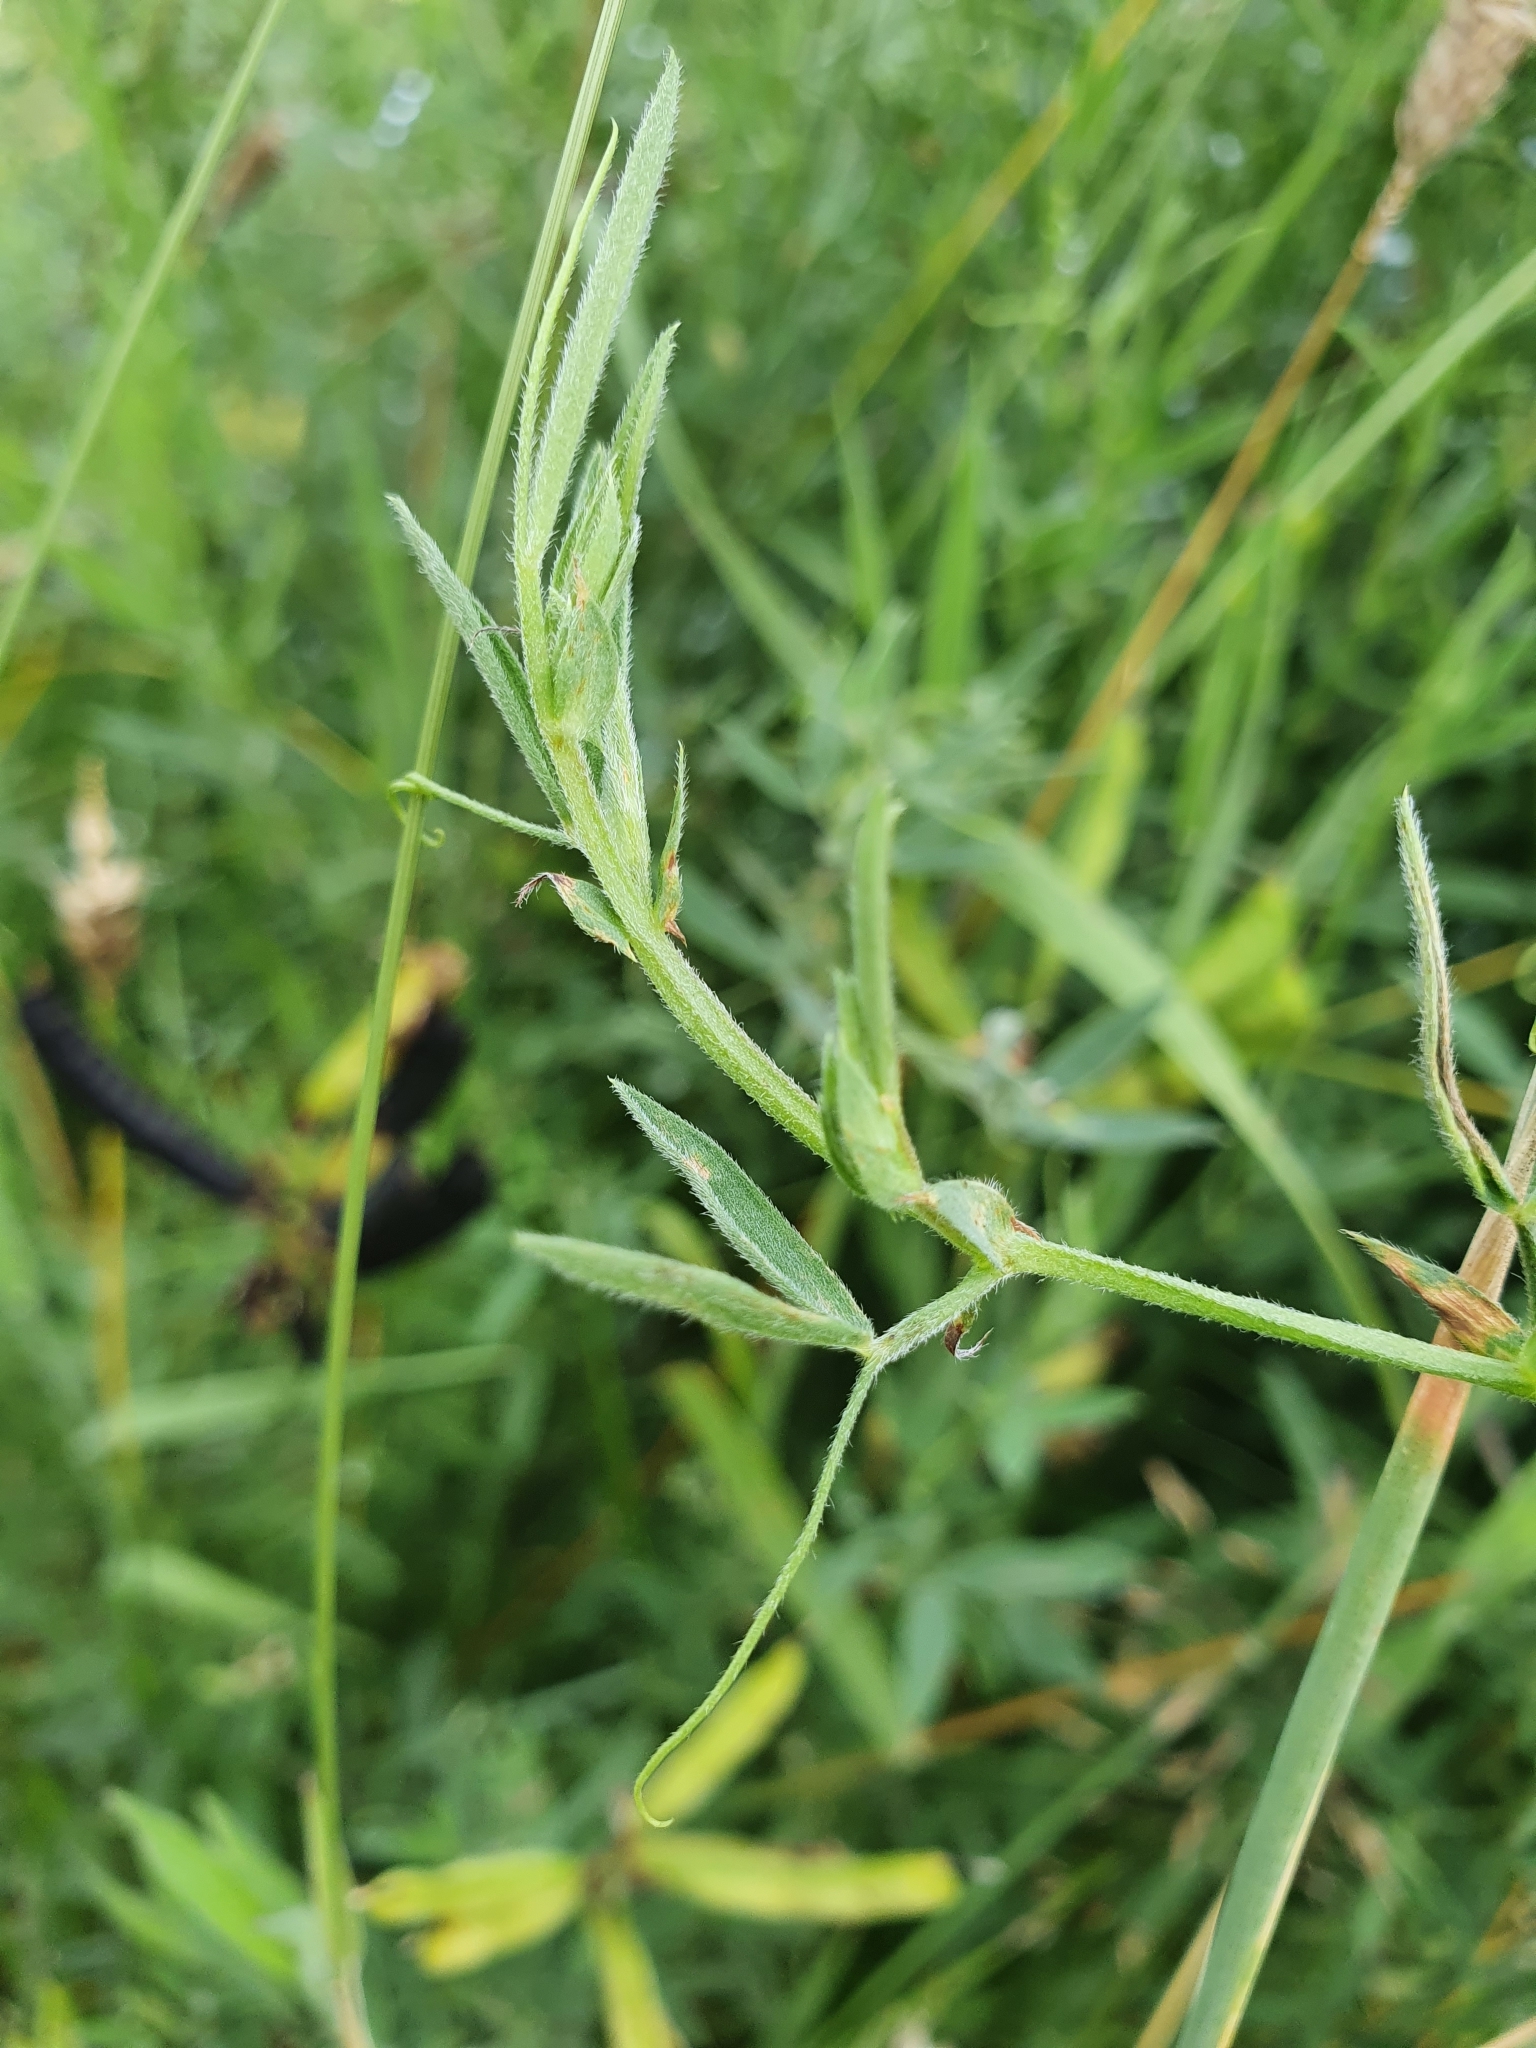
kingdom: Plantae
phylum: Tracheophyta
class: Magnoliopsida
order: Fabales
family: Fabaceae
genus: Lathyrus
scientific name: Lathyrus pratensis
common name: Meadow vetchling
